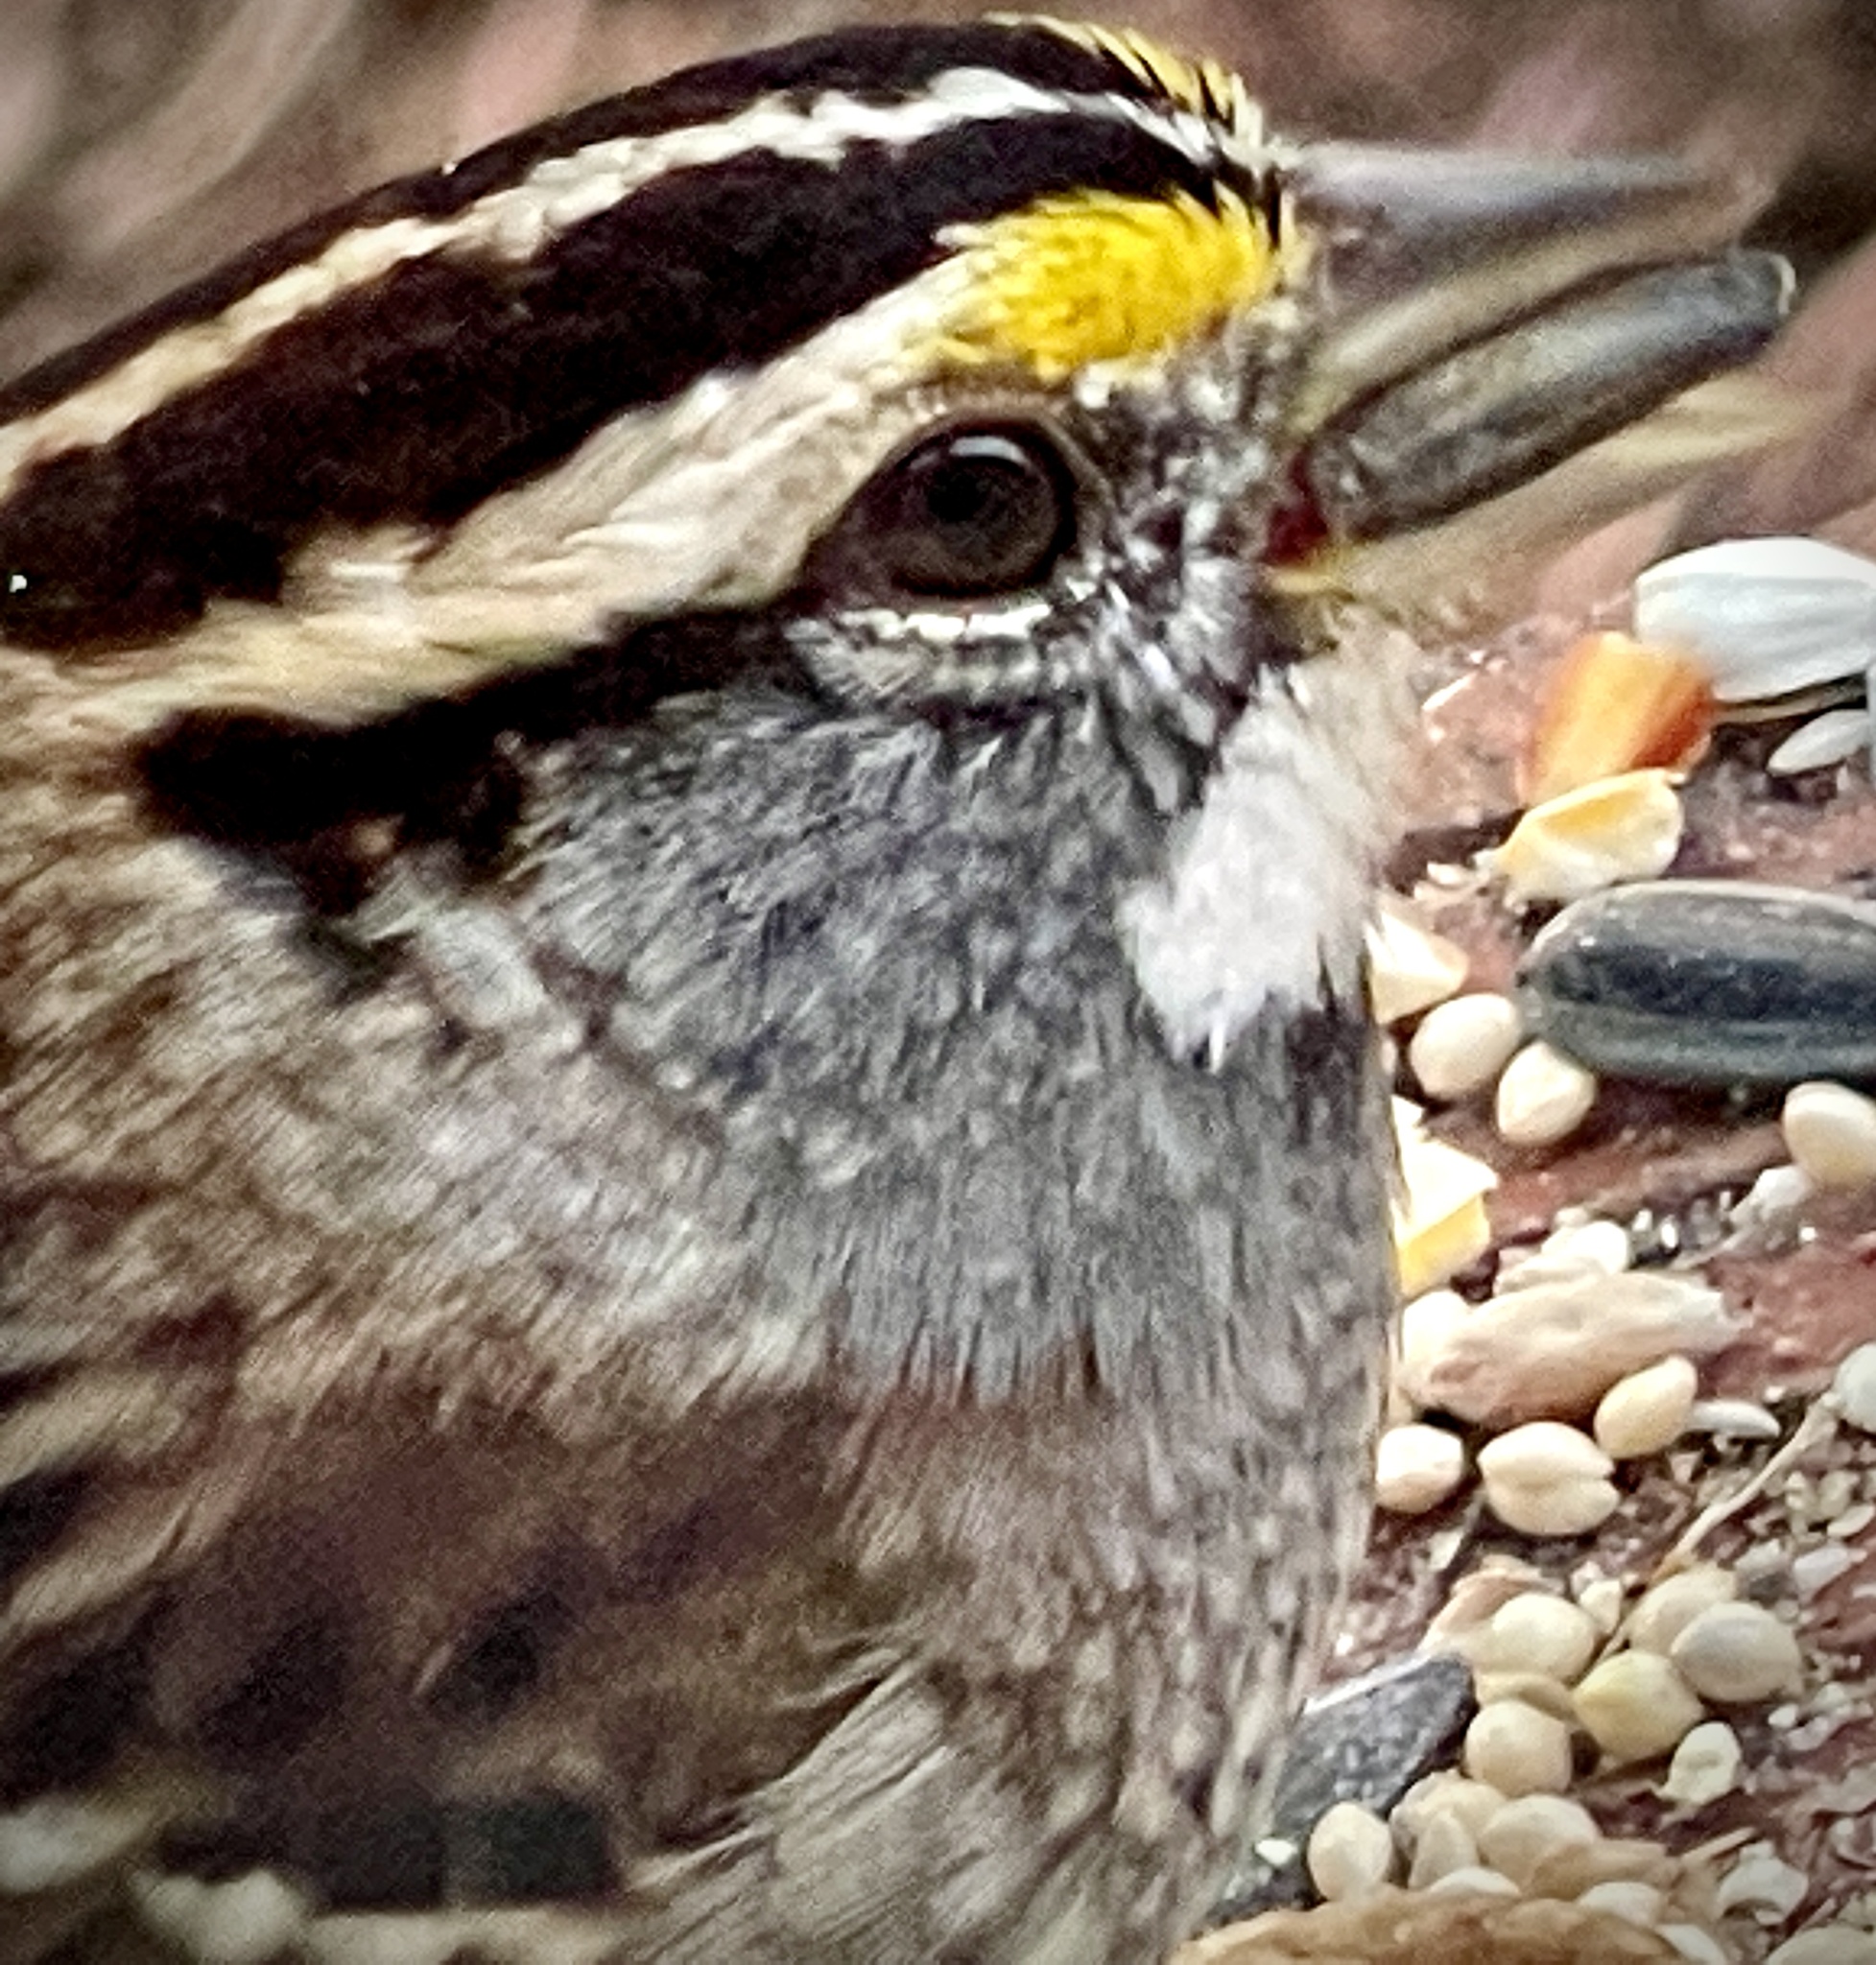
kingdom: Animalia
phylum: Chordata
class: Aves
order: Passeriformes
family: Passerellidae
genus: Zonotrichia
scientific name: Zonotrichia albicollis
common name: White-throated sparrow
